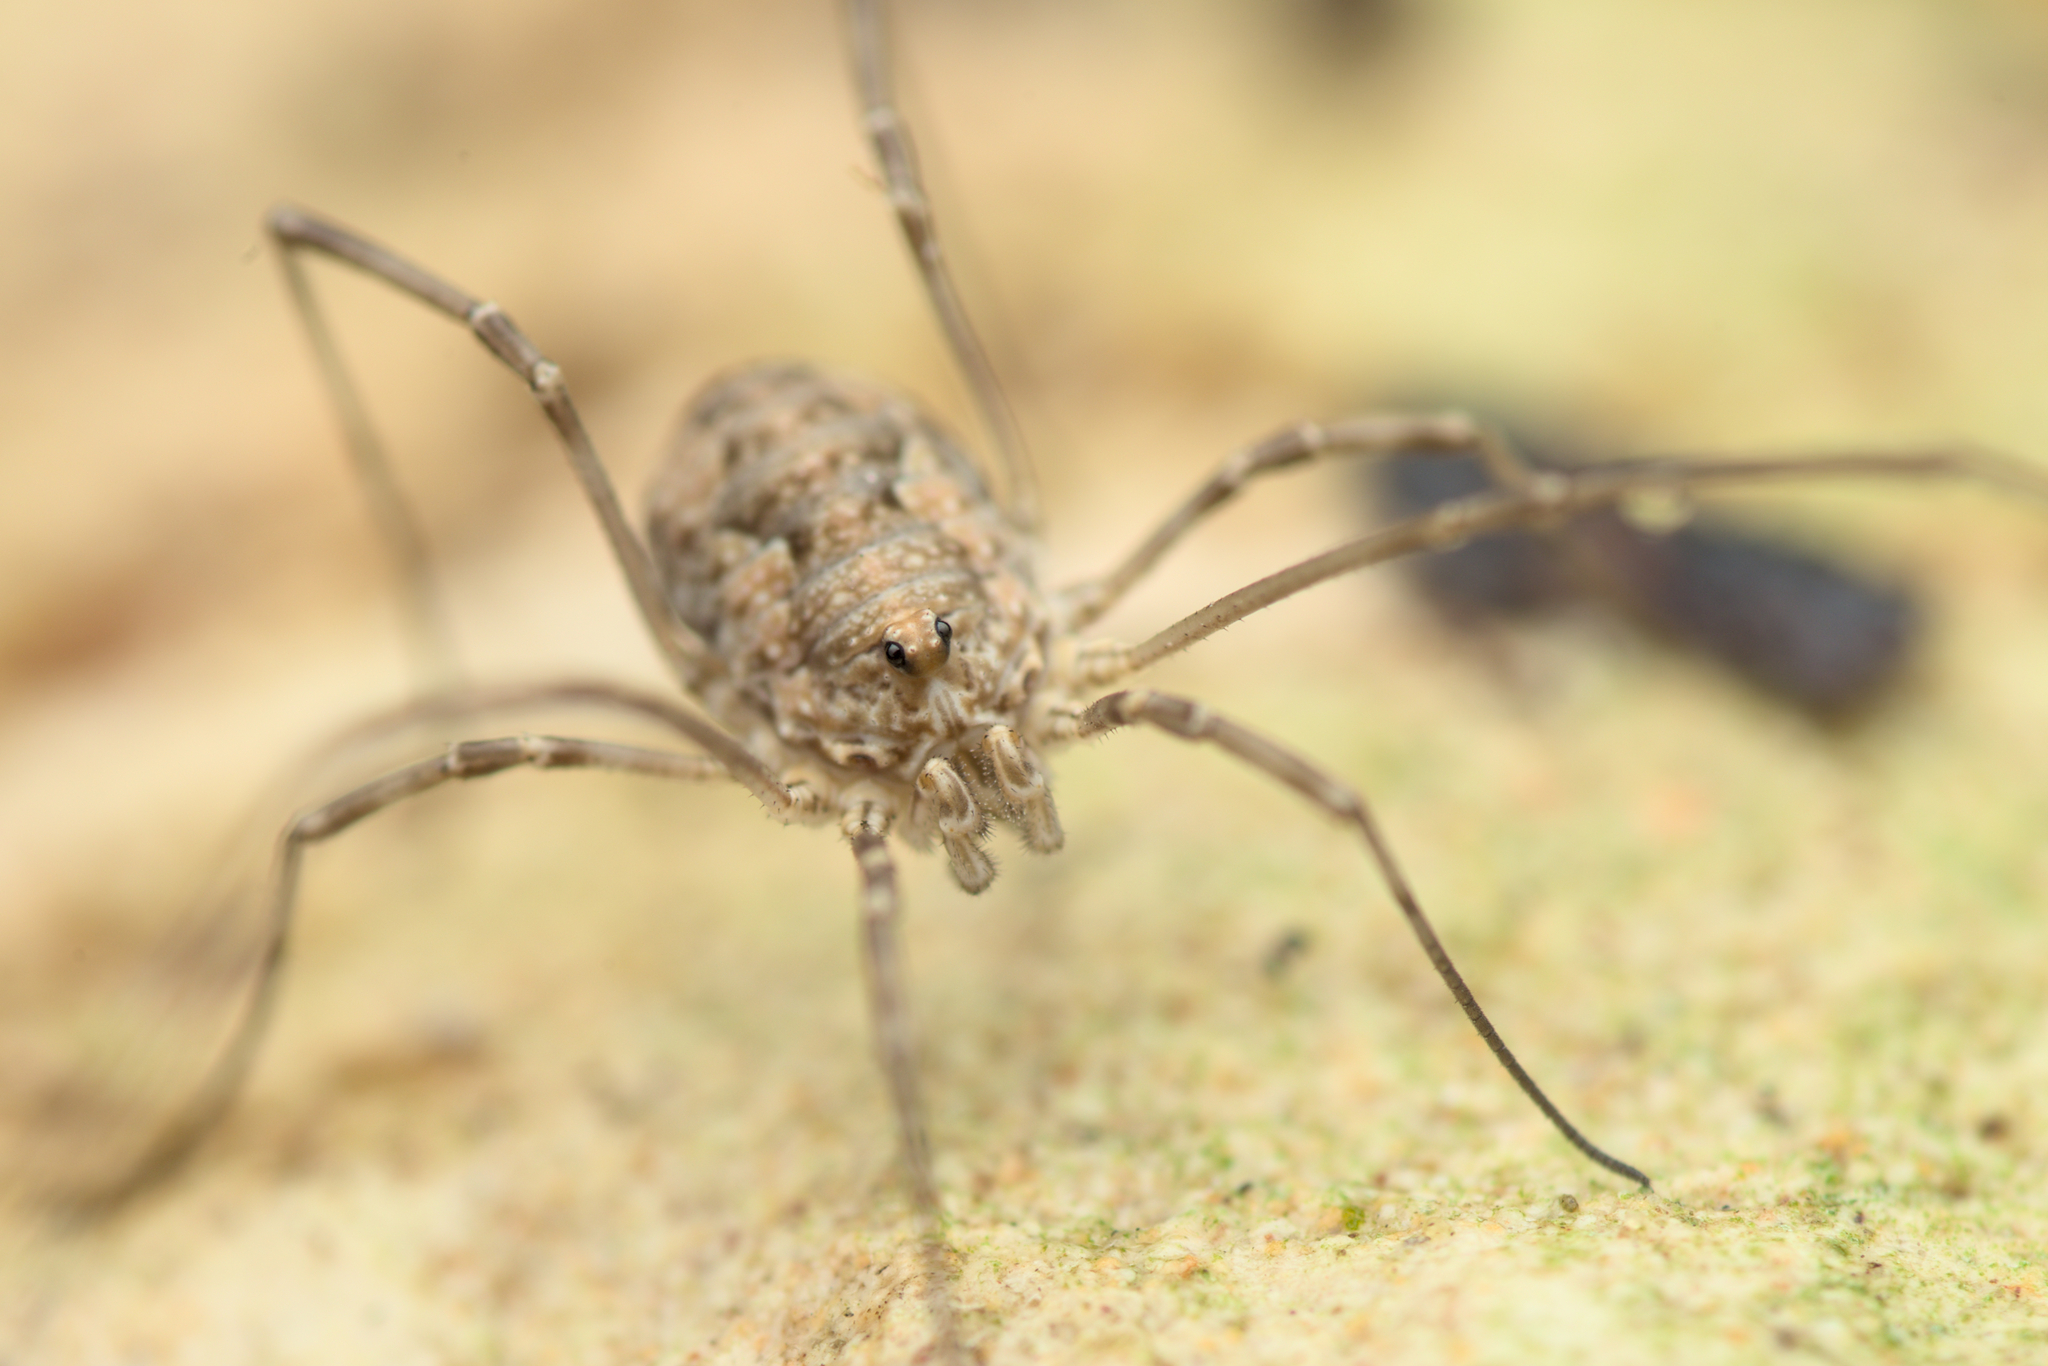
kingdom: Animalia
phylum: Arthropoda
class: Arachnida
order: Opiliones
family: Phalangiidae
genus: Phalangium
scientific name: Phalangium opilio
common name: Daddy longleg
